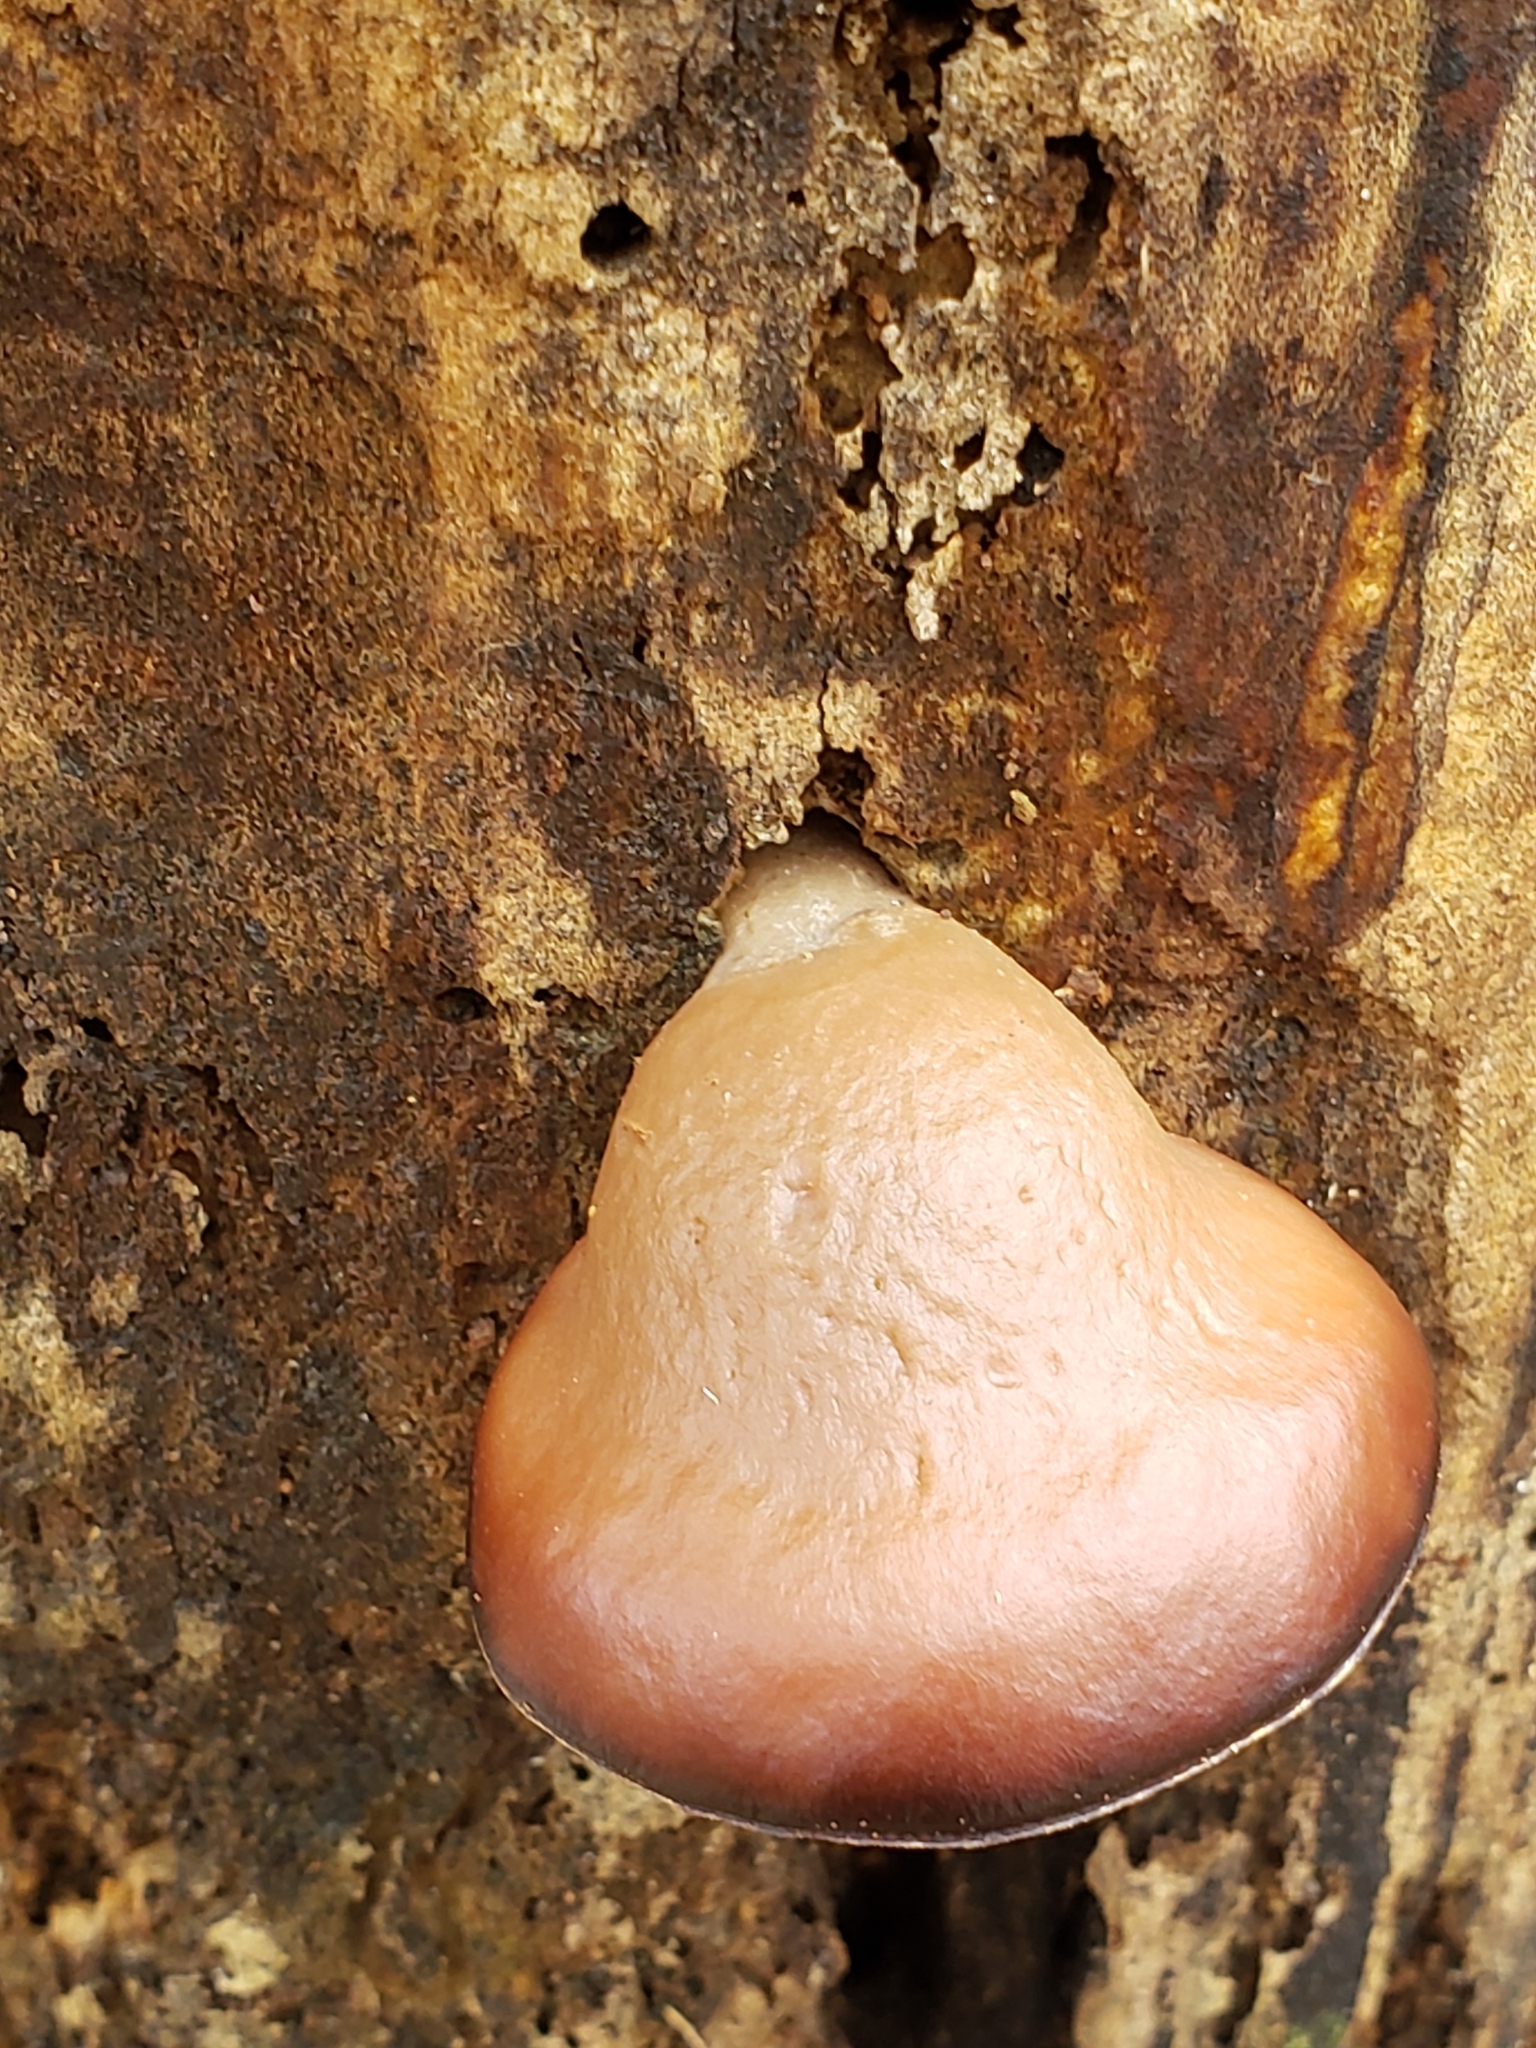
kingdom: Fungi
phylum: Basidiomycota
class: Agaricomycetes
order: Agaricales
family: Mycenaceae
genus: Panellus
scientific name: Panellus ringens
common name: Winter oysterling
